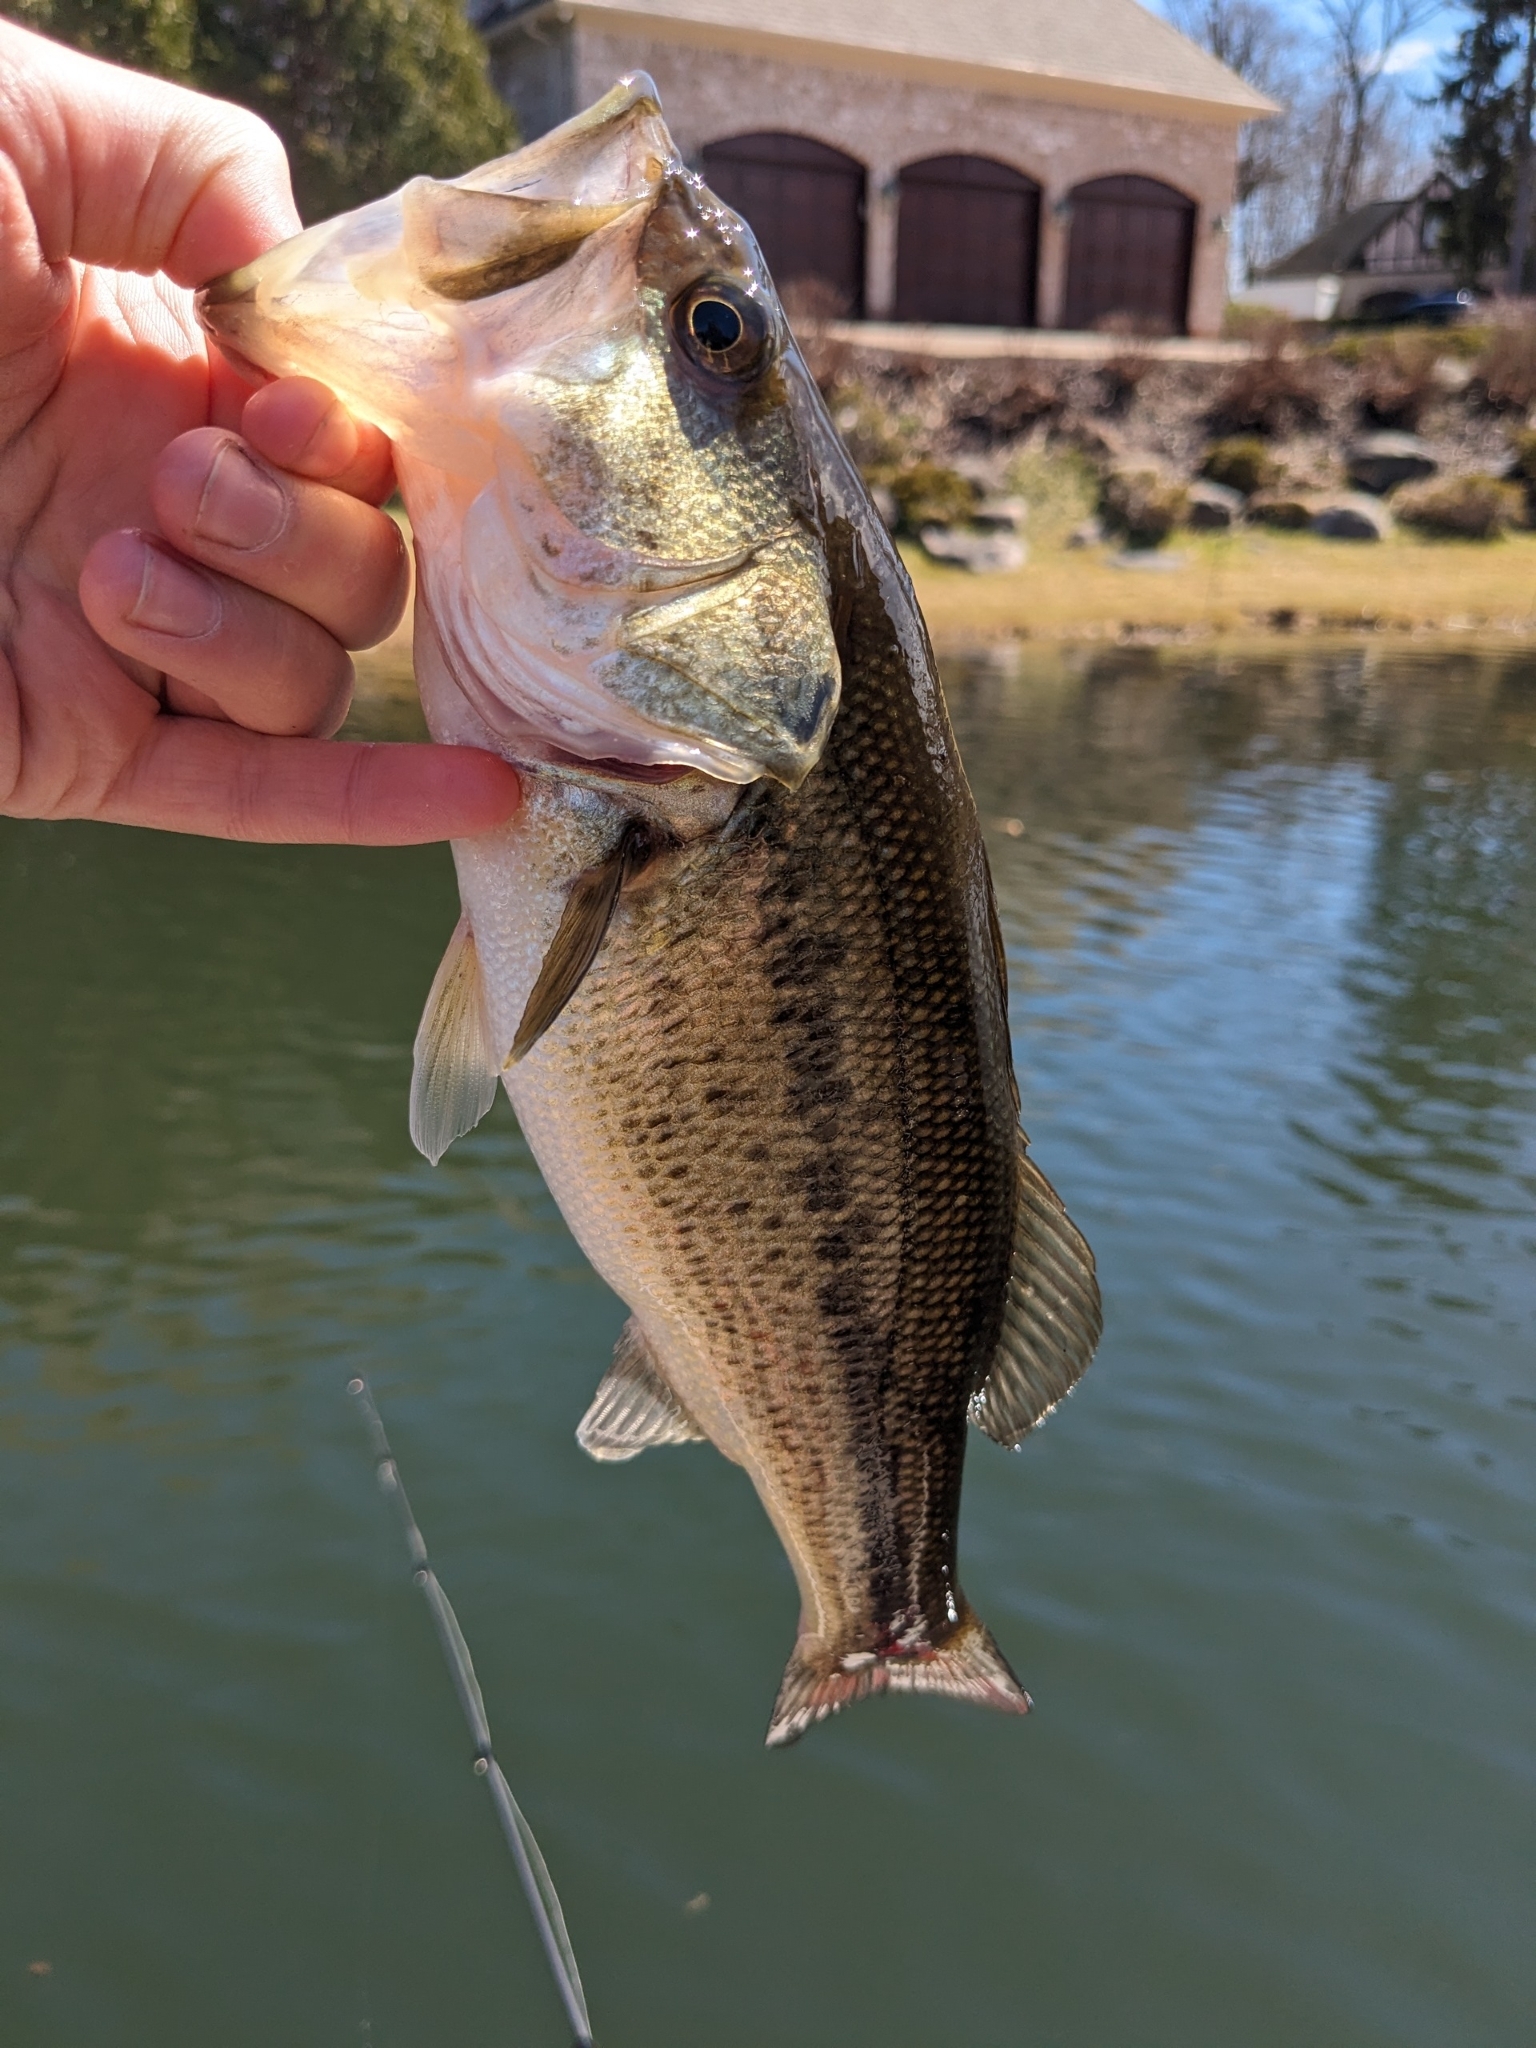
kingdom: Animalia
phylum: Chordata
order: Perciformes
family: Centrarchidae
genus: Micropterus
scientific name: Micropterus
